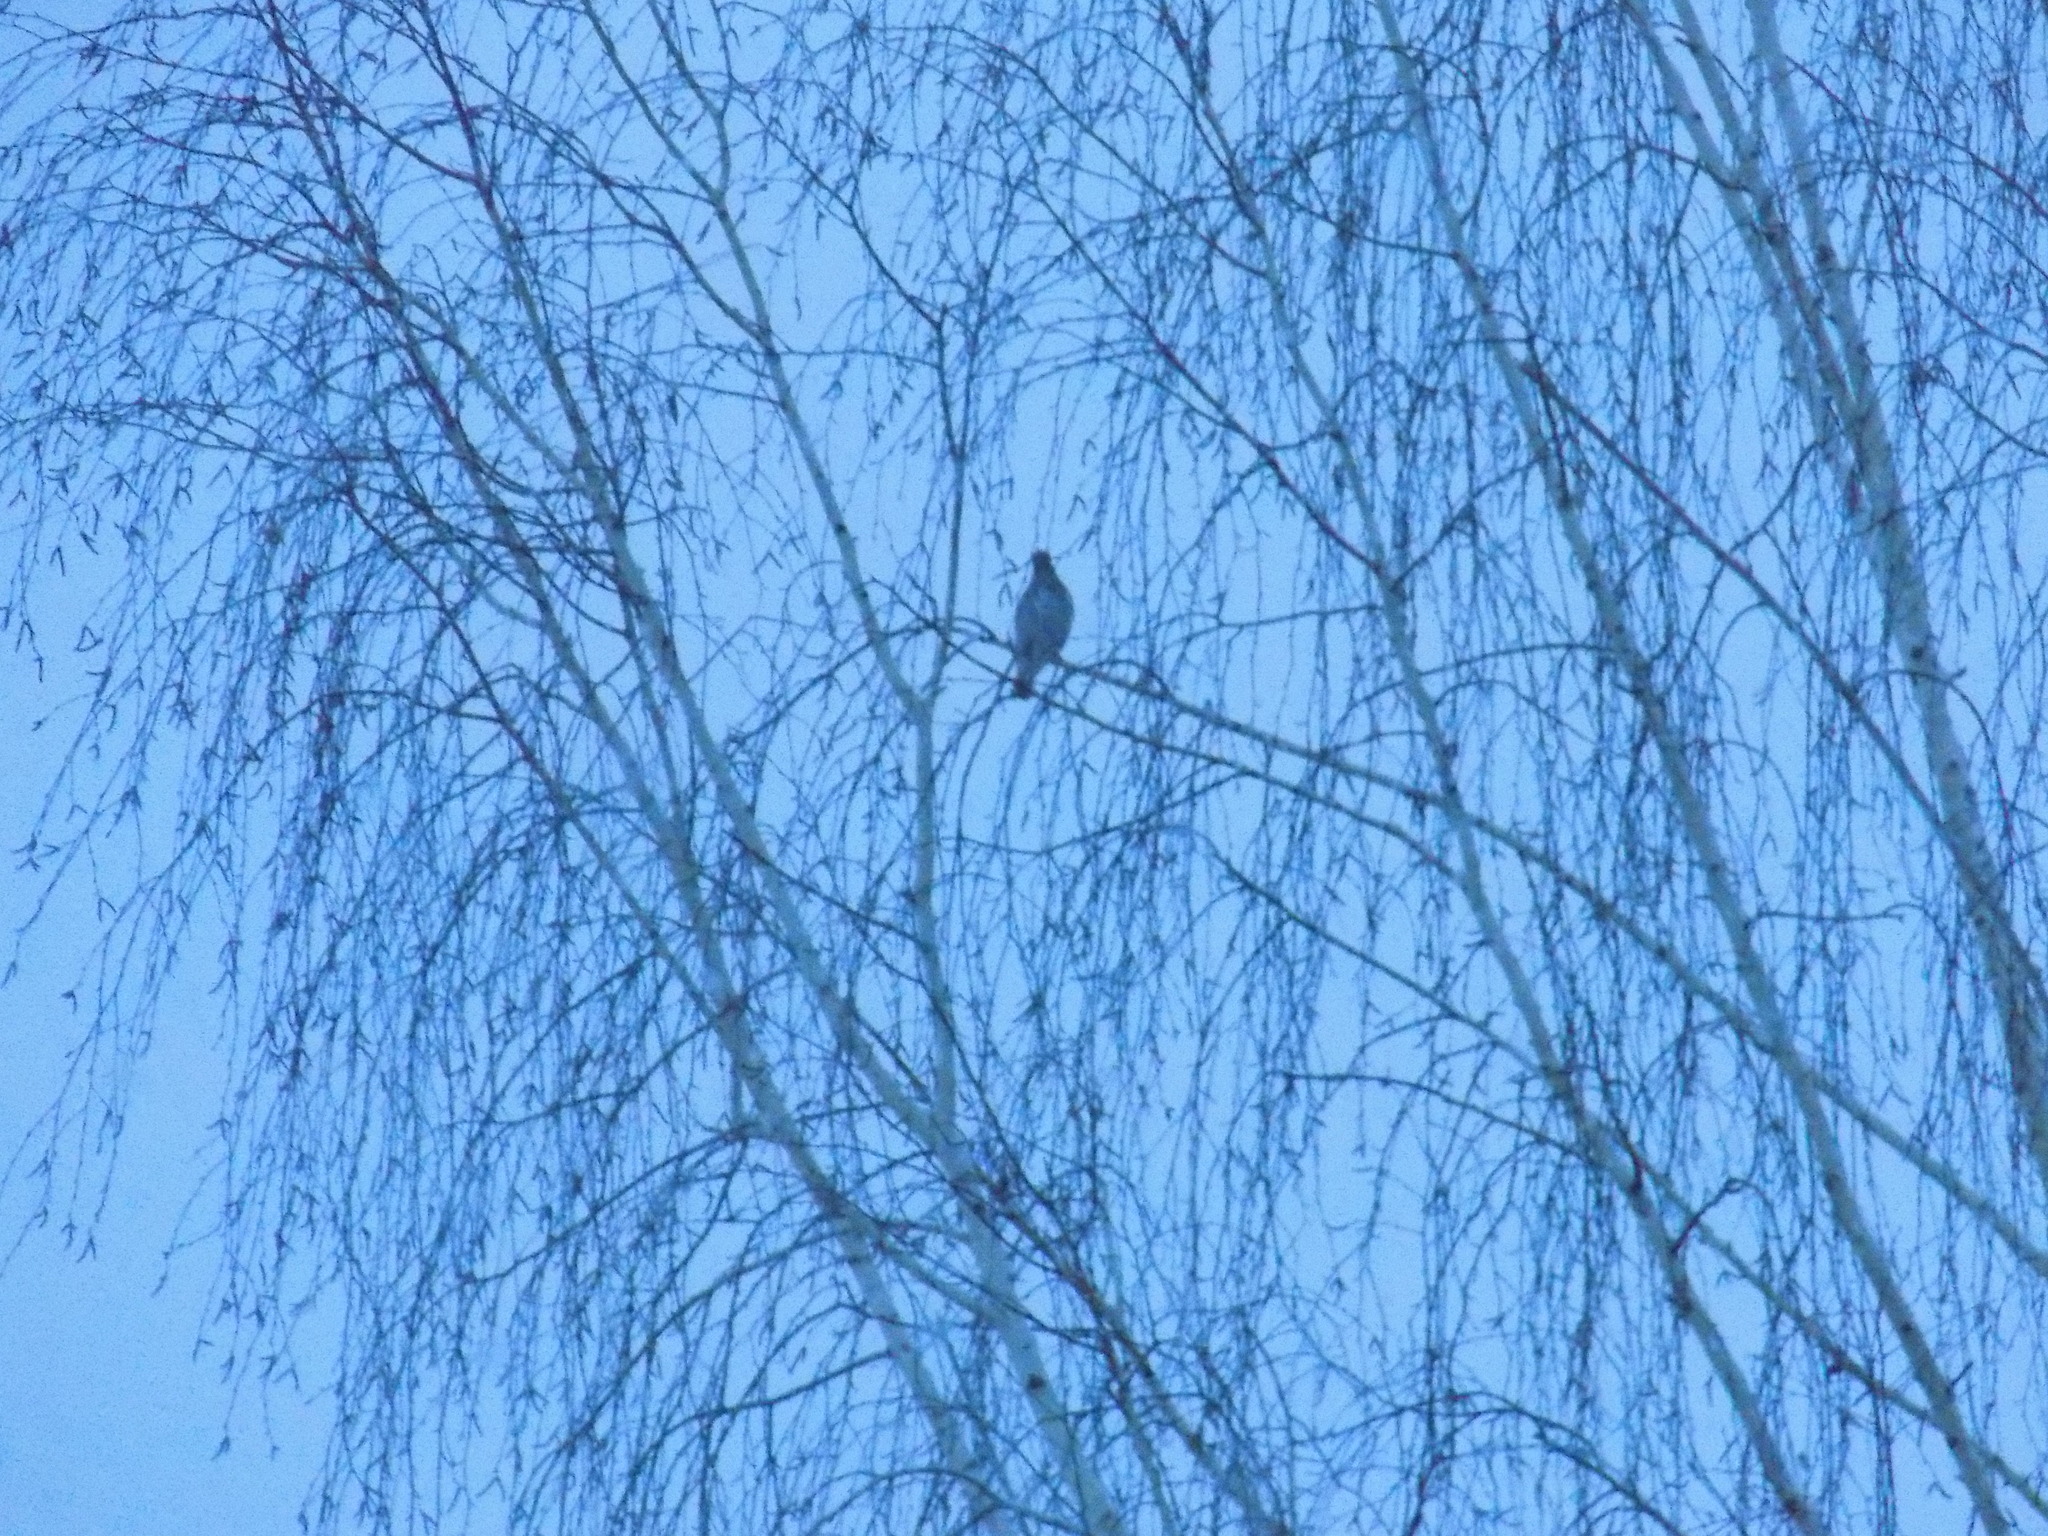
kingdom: Animalia
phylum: Chordata
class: Aves
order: Passeriformes
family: Turdidae
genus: Turdus
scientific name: Turdus atrogularis
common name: Black-throated thrush
